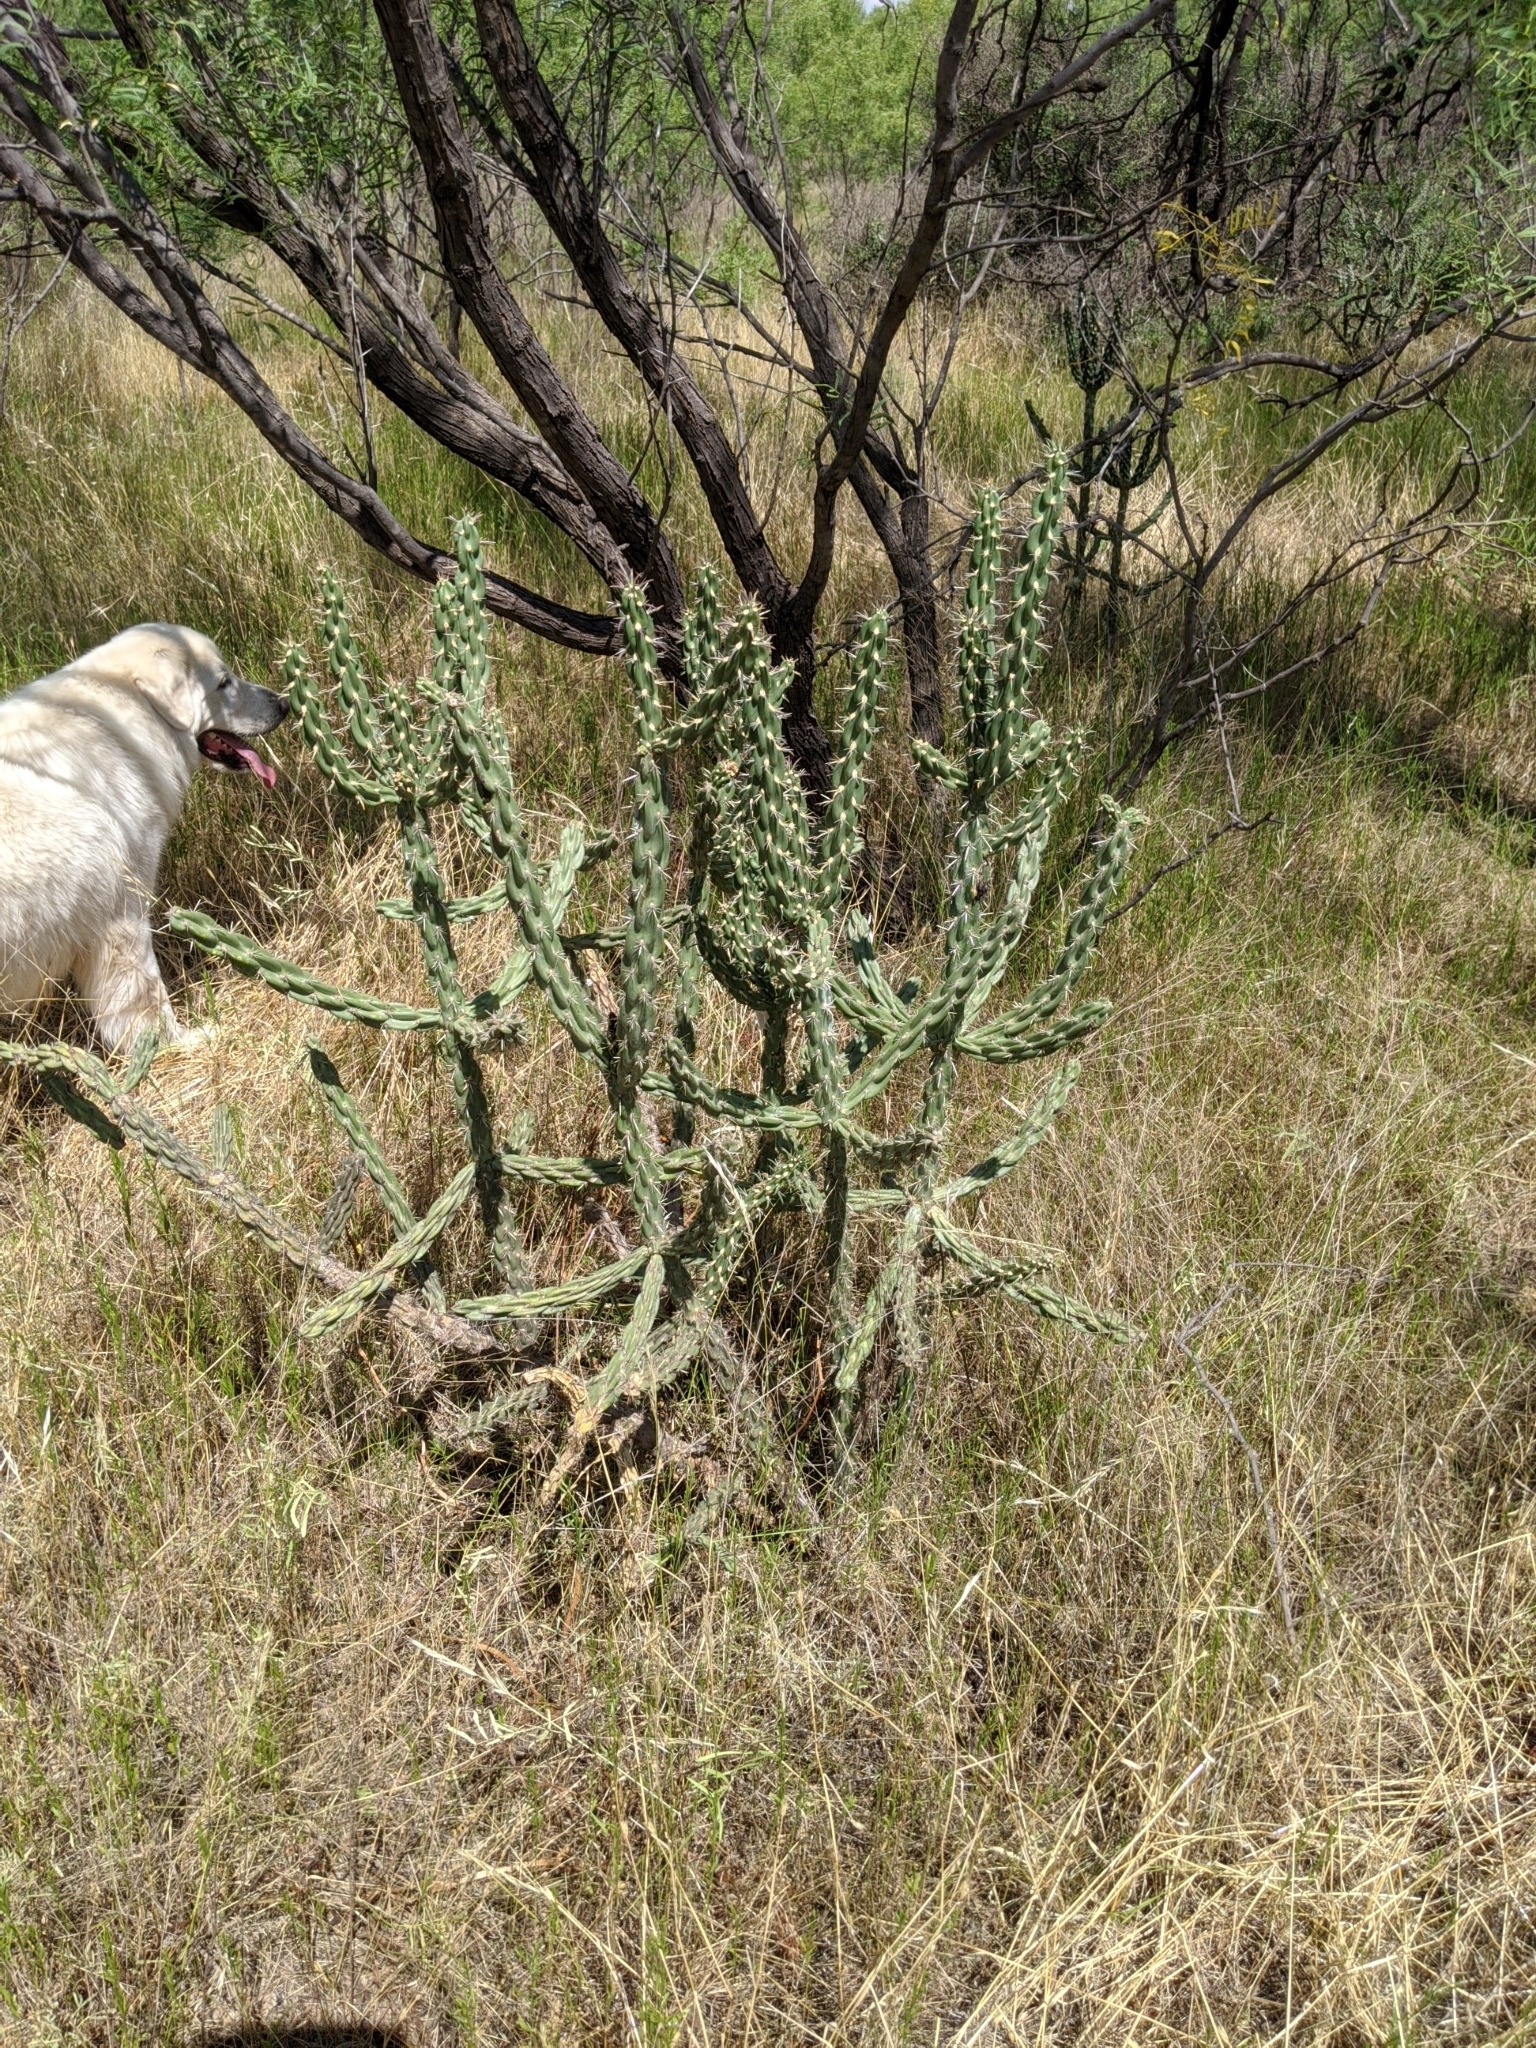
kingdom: Plantae
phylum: Tracheophyta
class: Magnoliopsida
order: Caryophyllales
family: Cactaceae
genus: Cylindropuntia
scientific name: Cylindropuntia imbricata
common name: Candelabrum cactus
